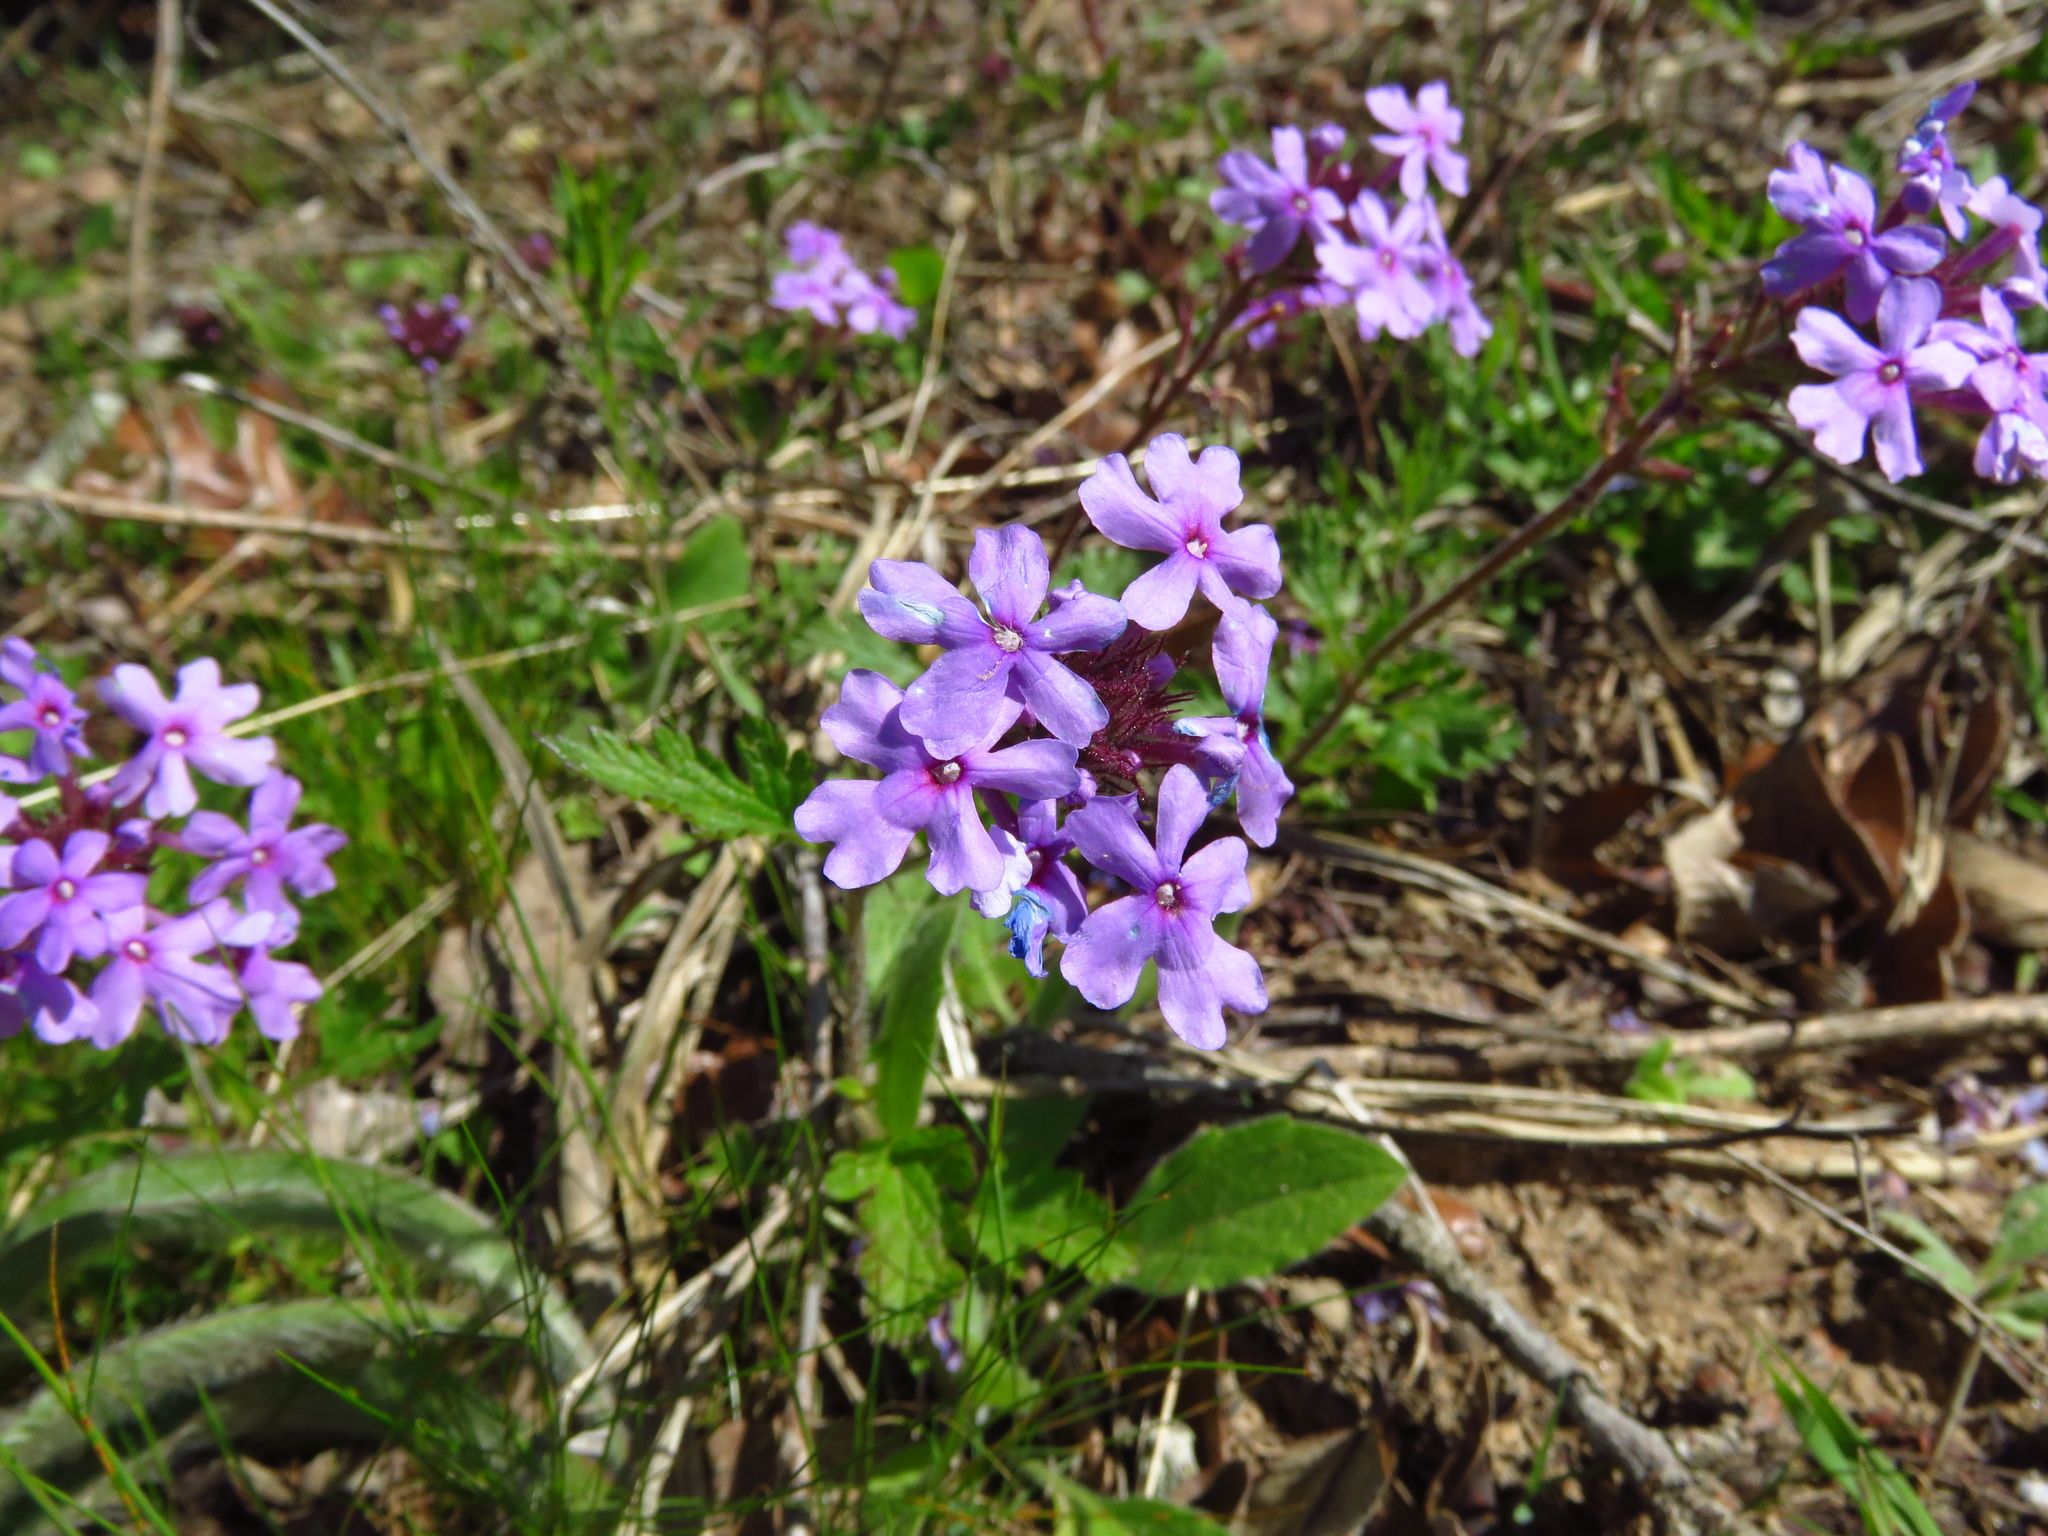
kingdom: Plantae
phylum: Tracheophyta
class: Magnoliopsida
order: Lamiales
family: Verbenaceae
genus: Verbena
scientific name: Verbena canadensis
